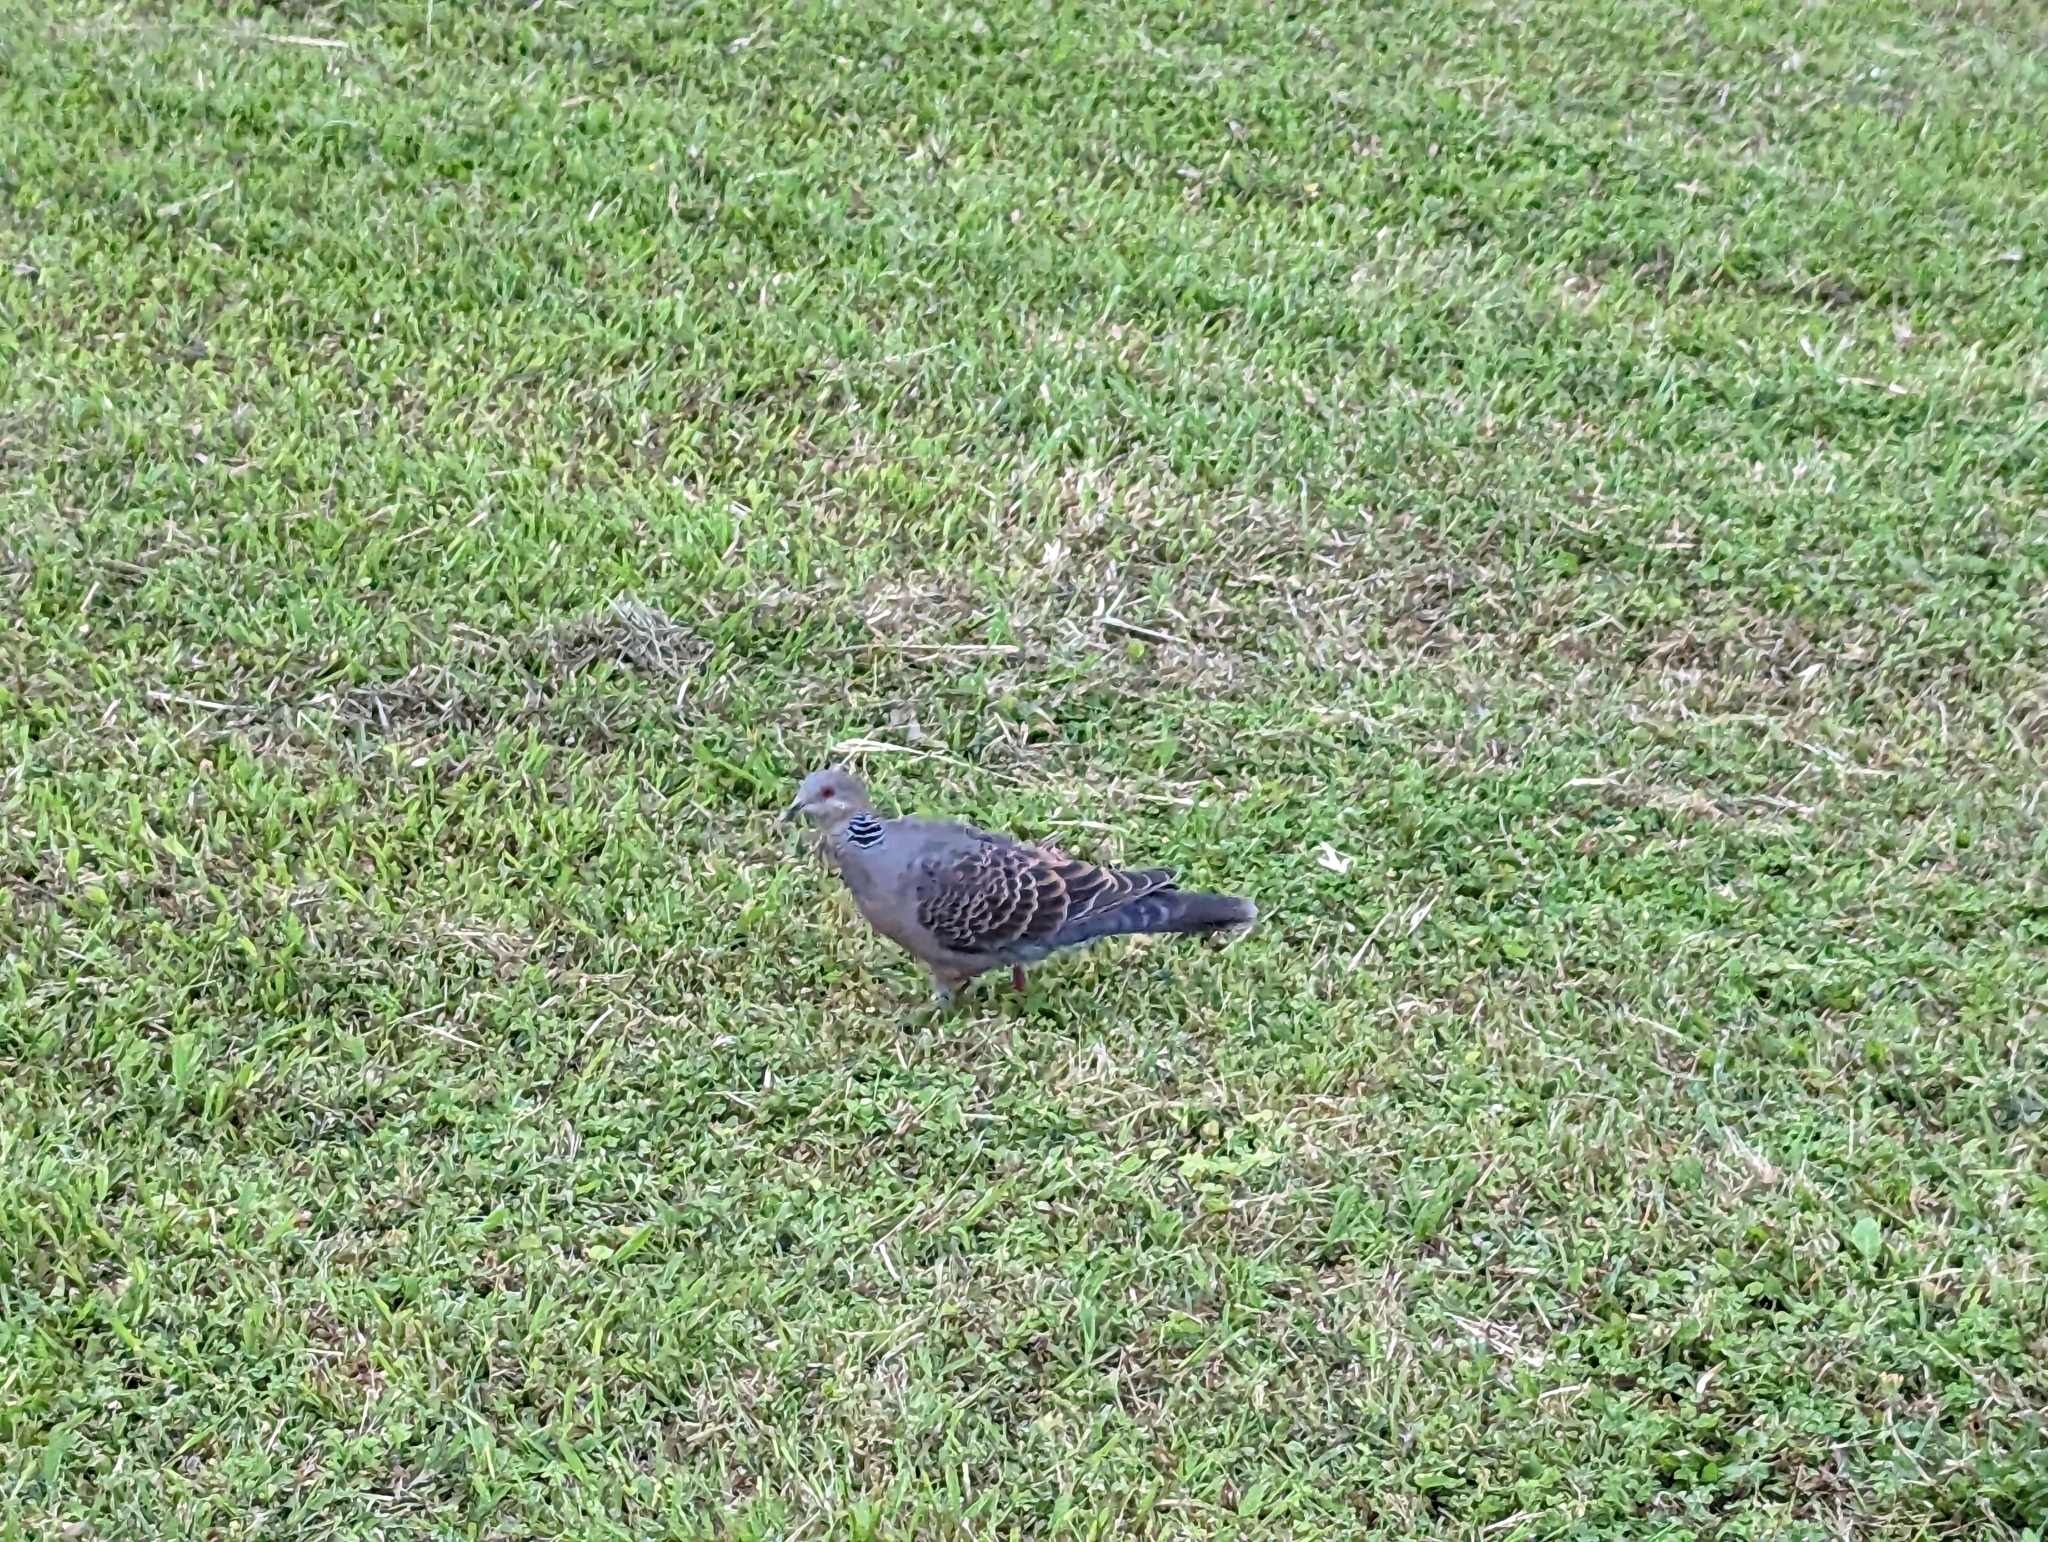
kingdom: Animalia
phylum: Chordata
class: Aves
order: Columbiformes
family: Columbidae
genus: Streptopelia
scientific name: Streptopelia orientalis
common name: Oriental turtle dove
